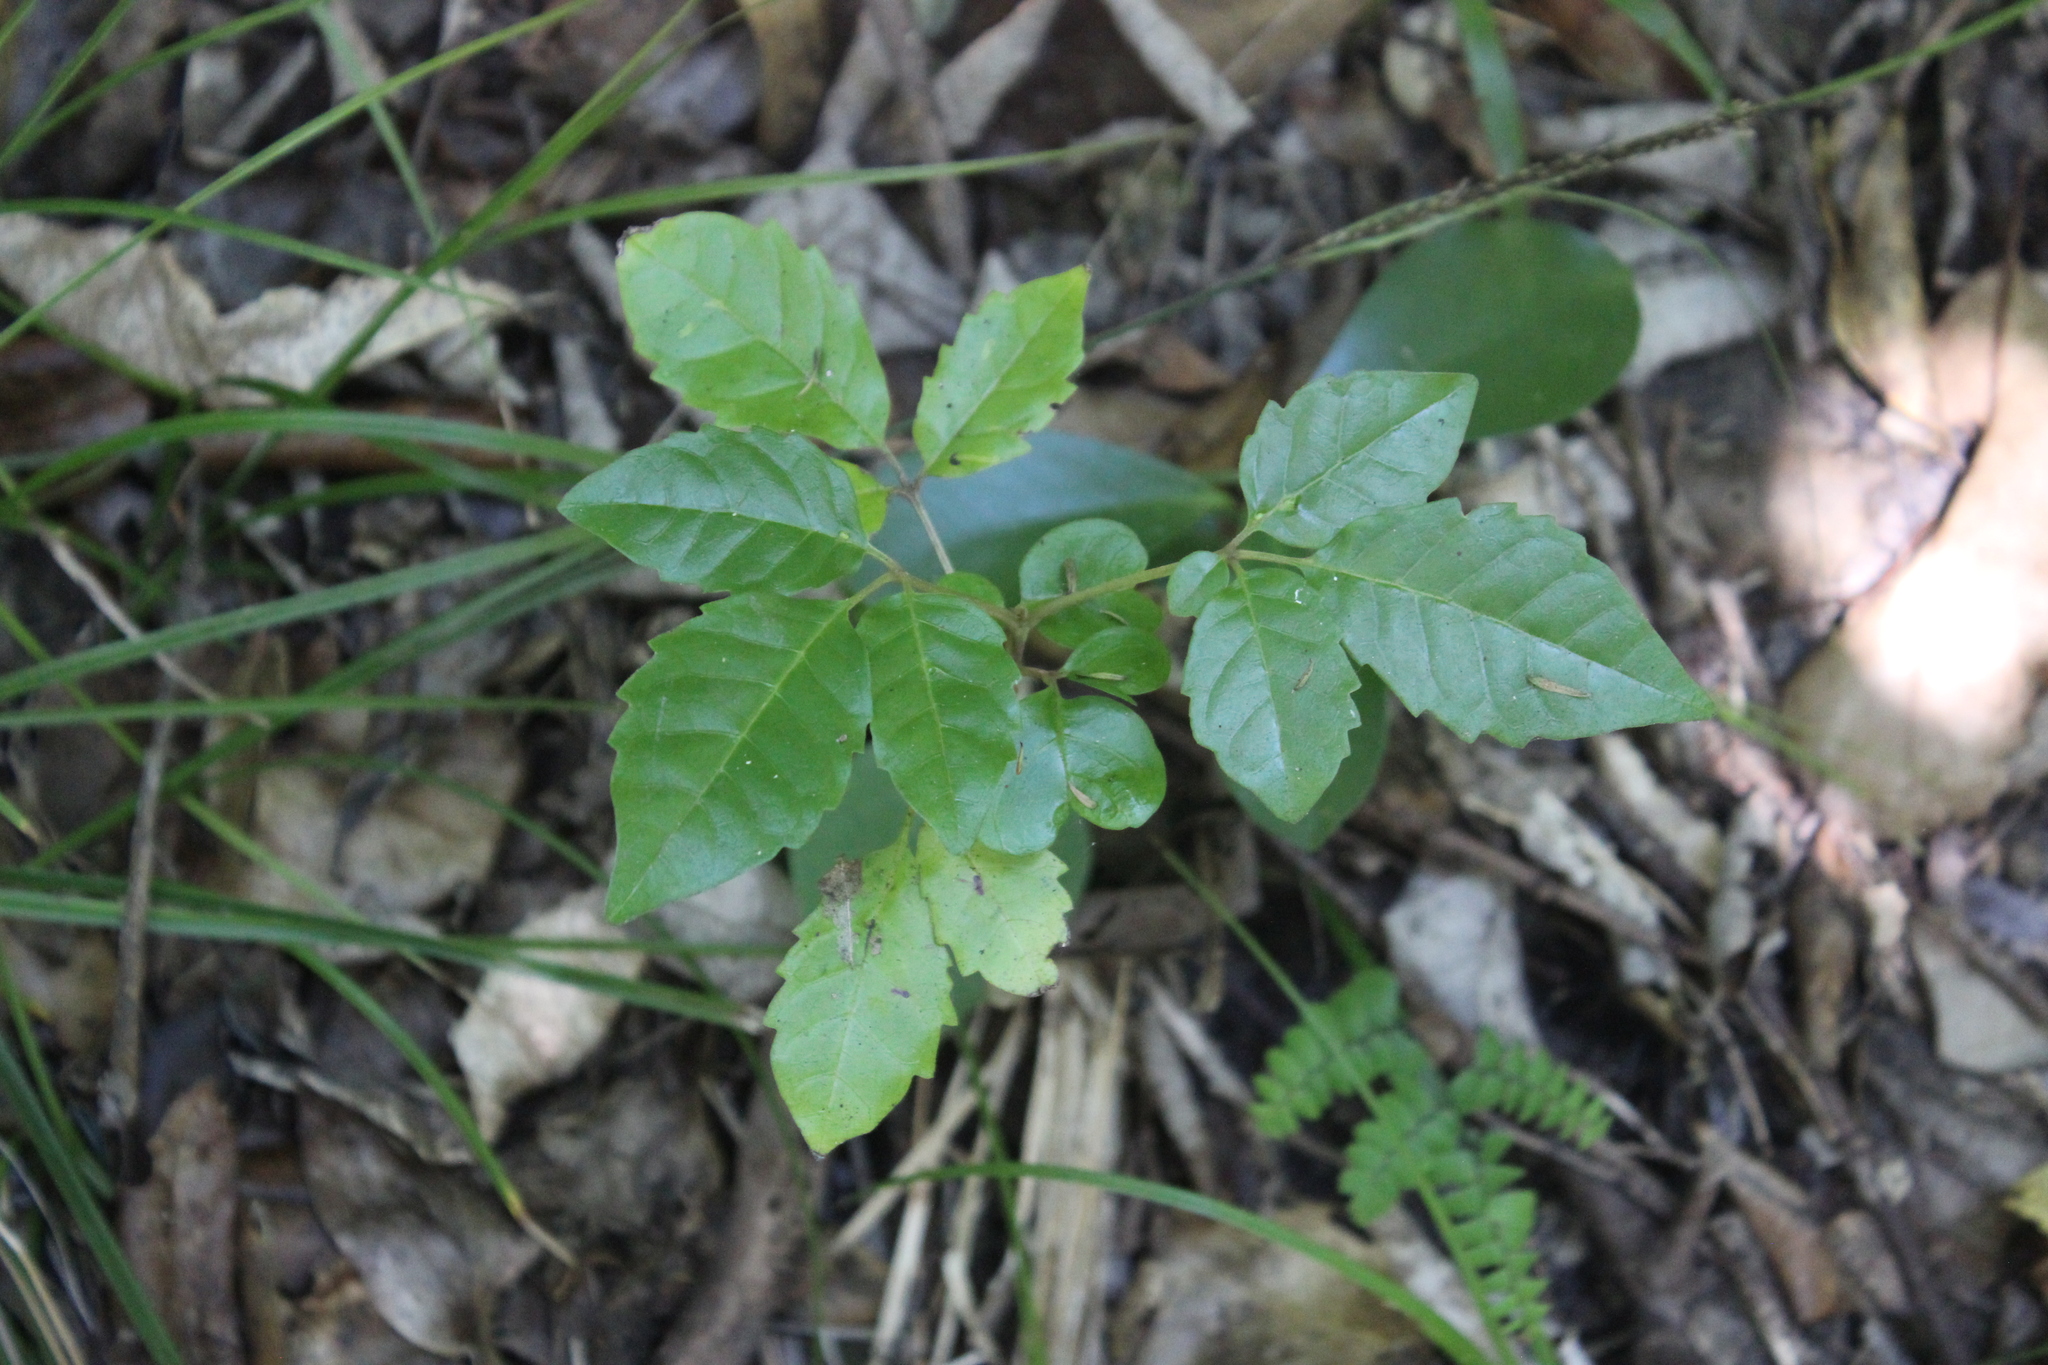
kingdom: Plantae
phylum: Tracheophyta
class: Magnoliopsida
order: Lamiales
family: Lamiaceae
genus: Vitex
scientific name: Vitex lucens
